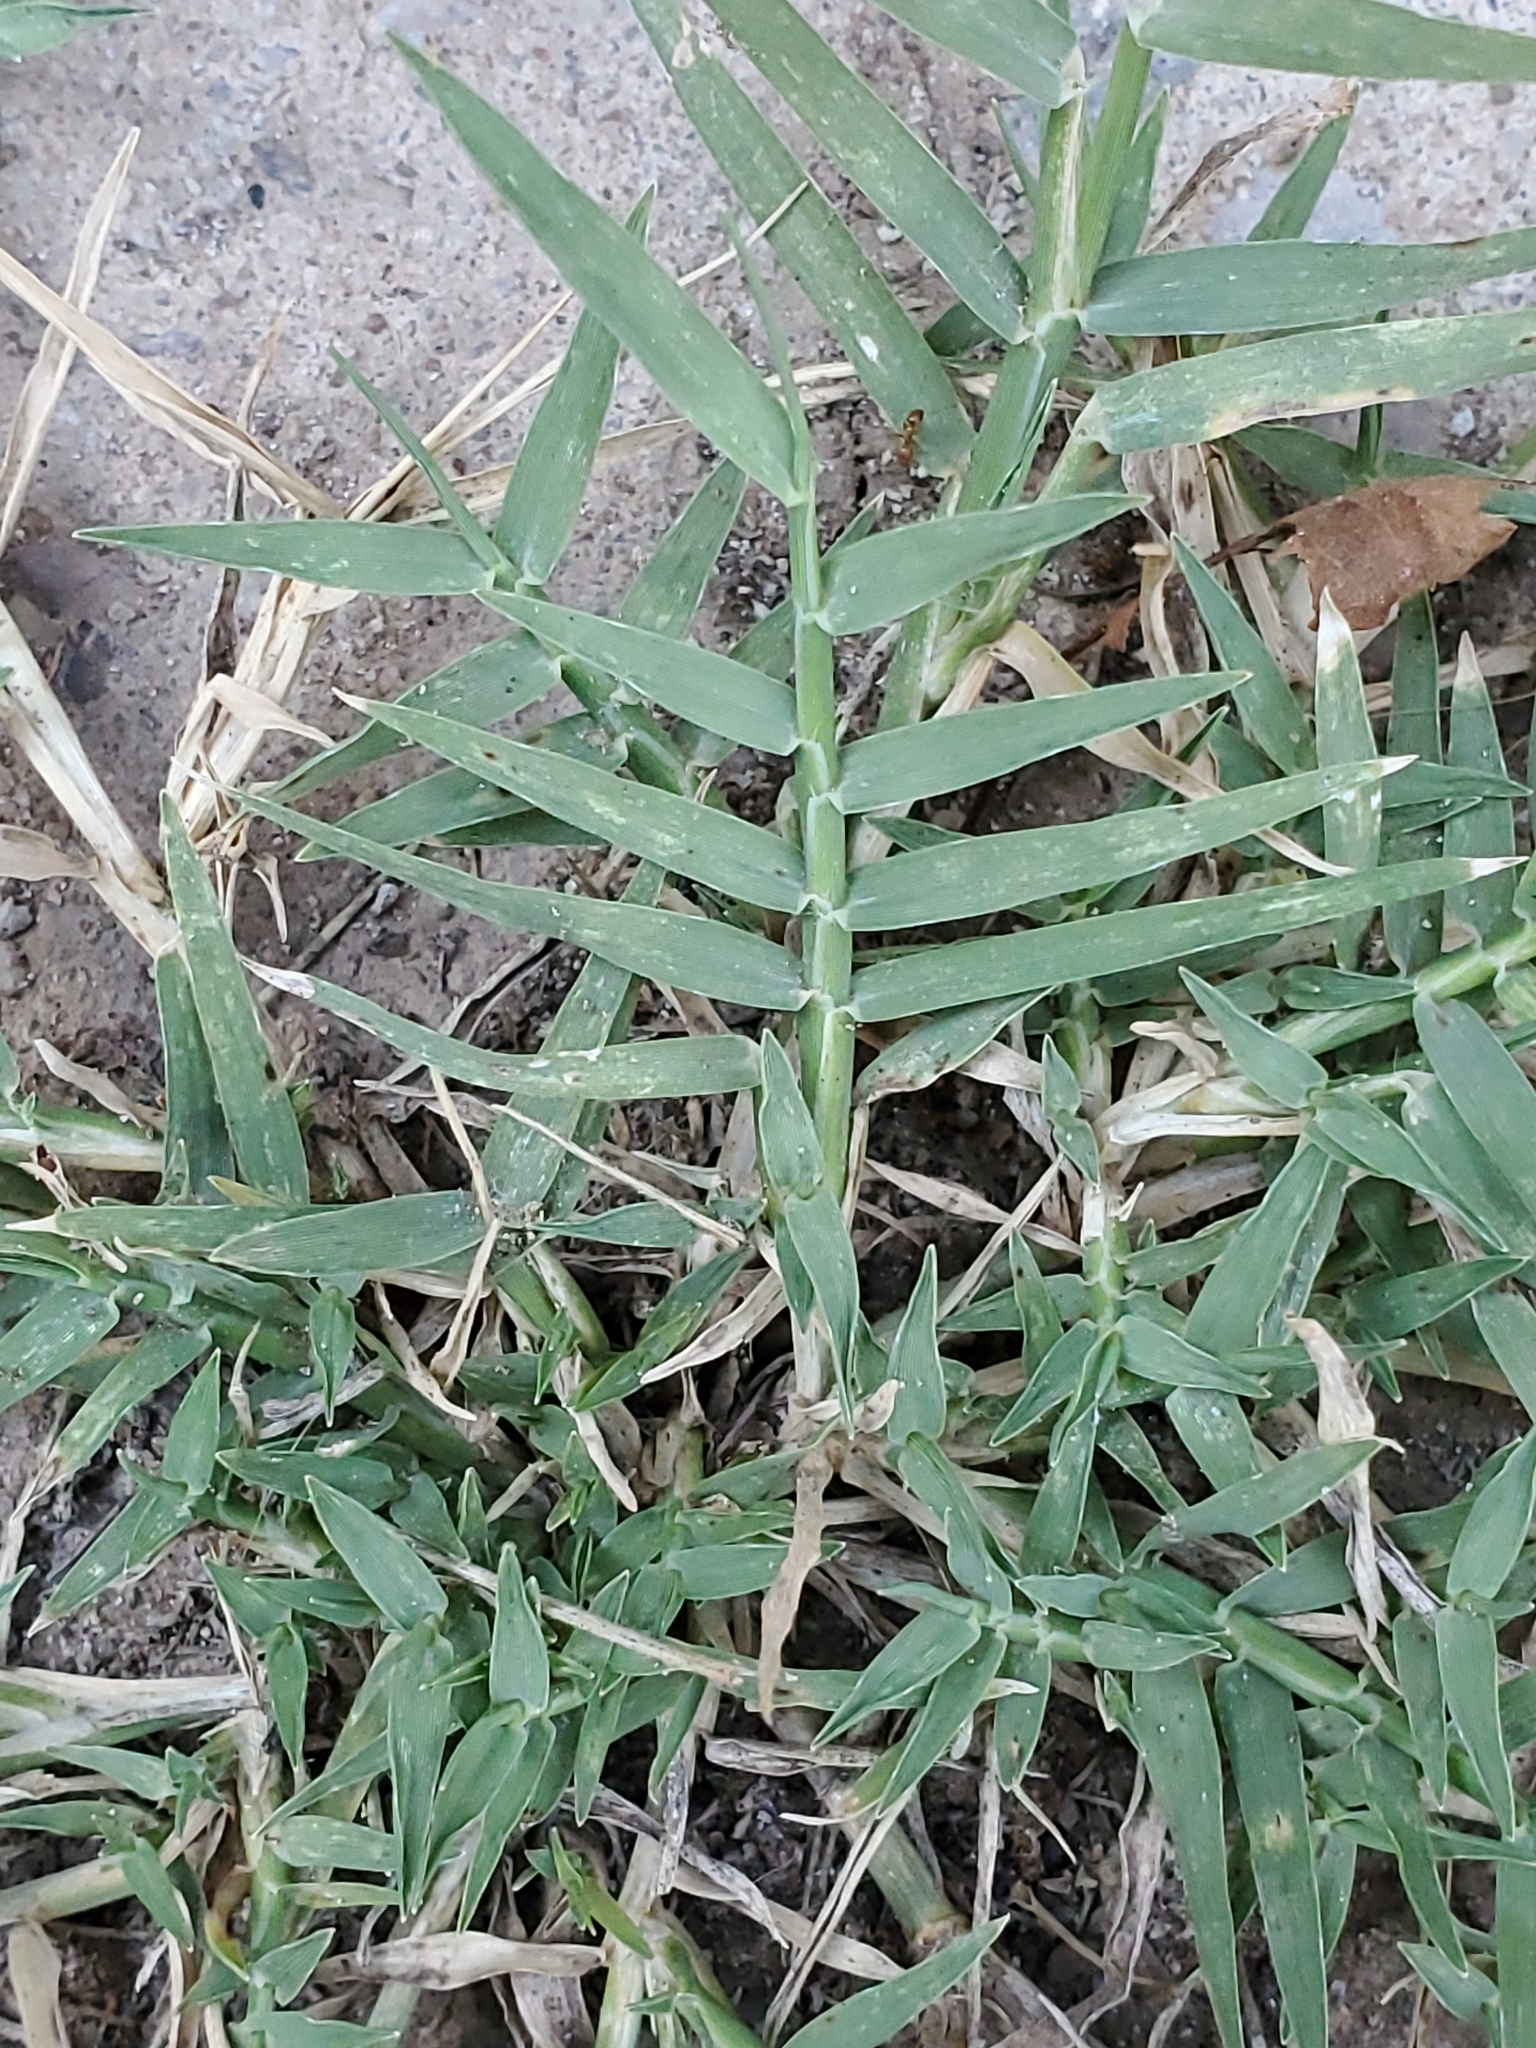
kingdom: Plantae
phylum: Tracheophyta
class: Liliopsida
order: Poales
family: Poaceae
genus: Cynodon
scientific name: Cynodon dactylon
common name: Bermuda grass
